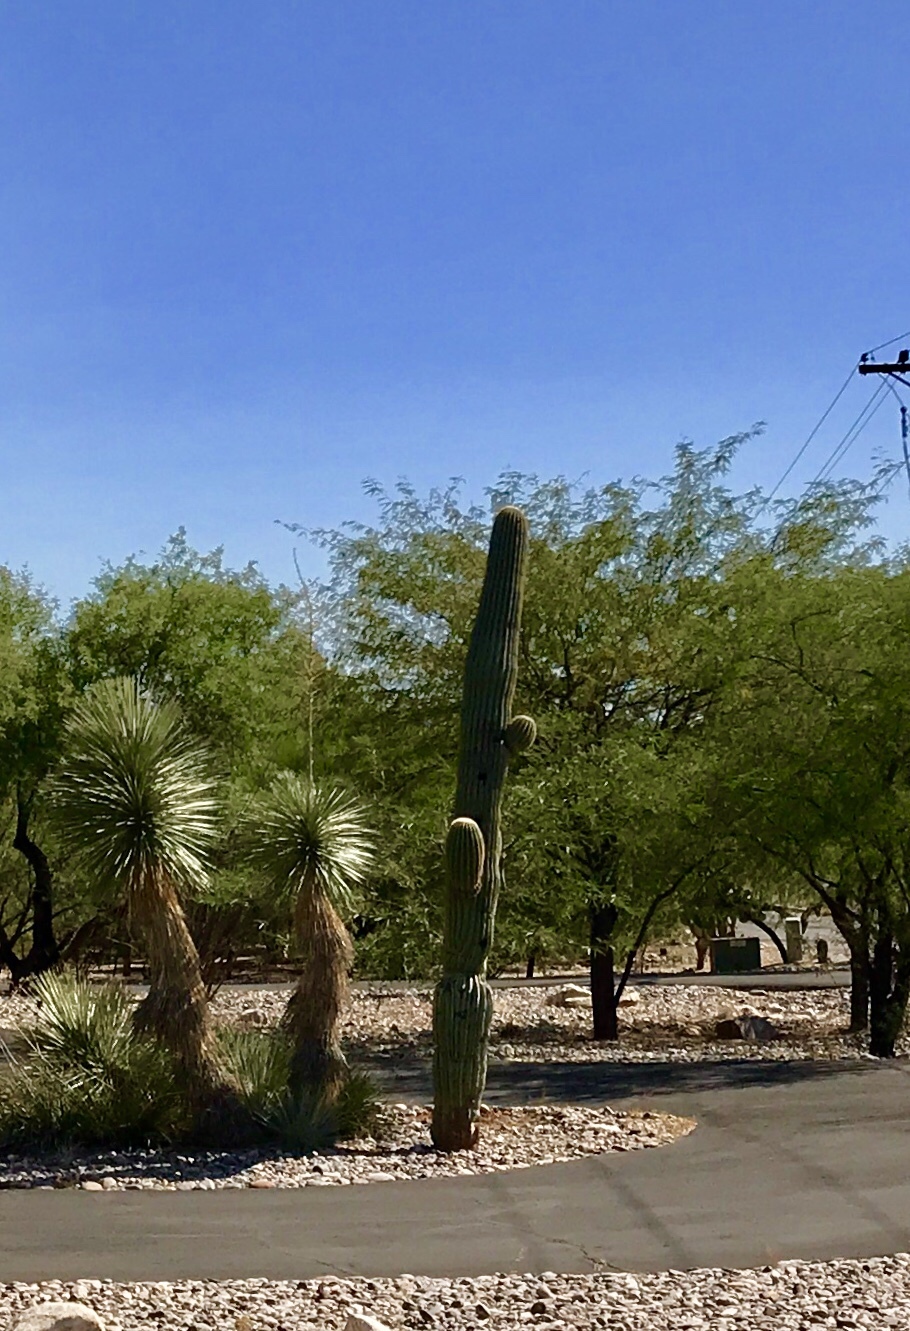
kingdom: Plantae
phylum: Tracheophyta
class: Magnoliopsida
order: Caryophyllales
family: Cactaceae
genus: Carnegiea
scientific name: Carnegiea gigantea
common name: Saguaro
